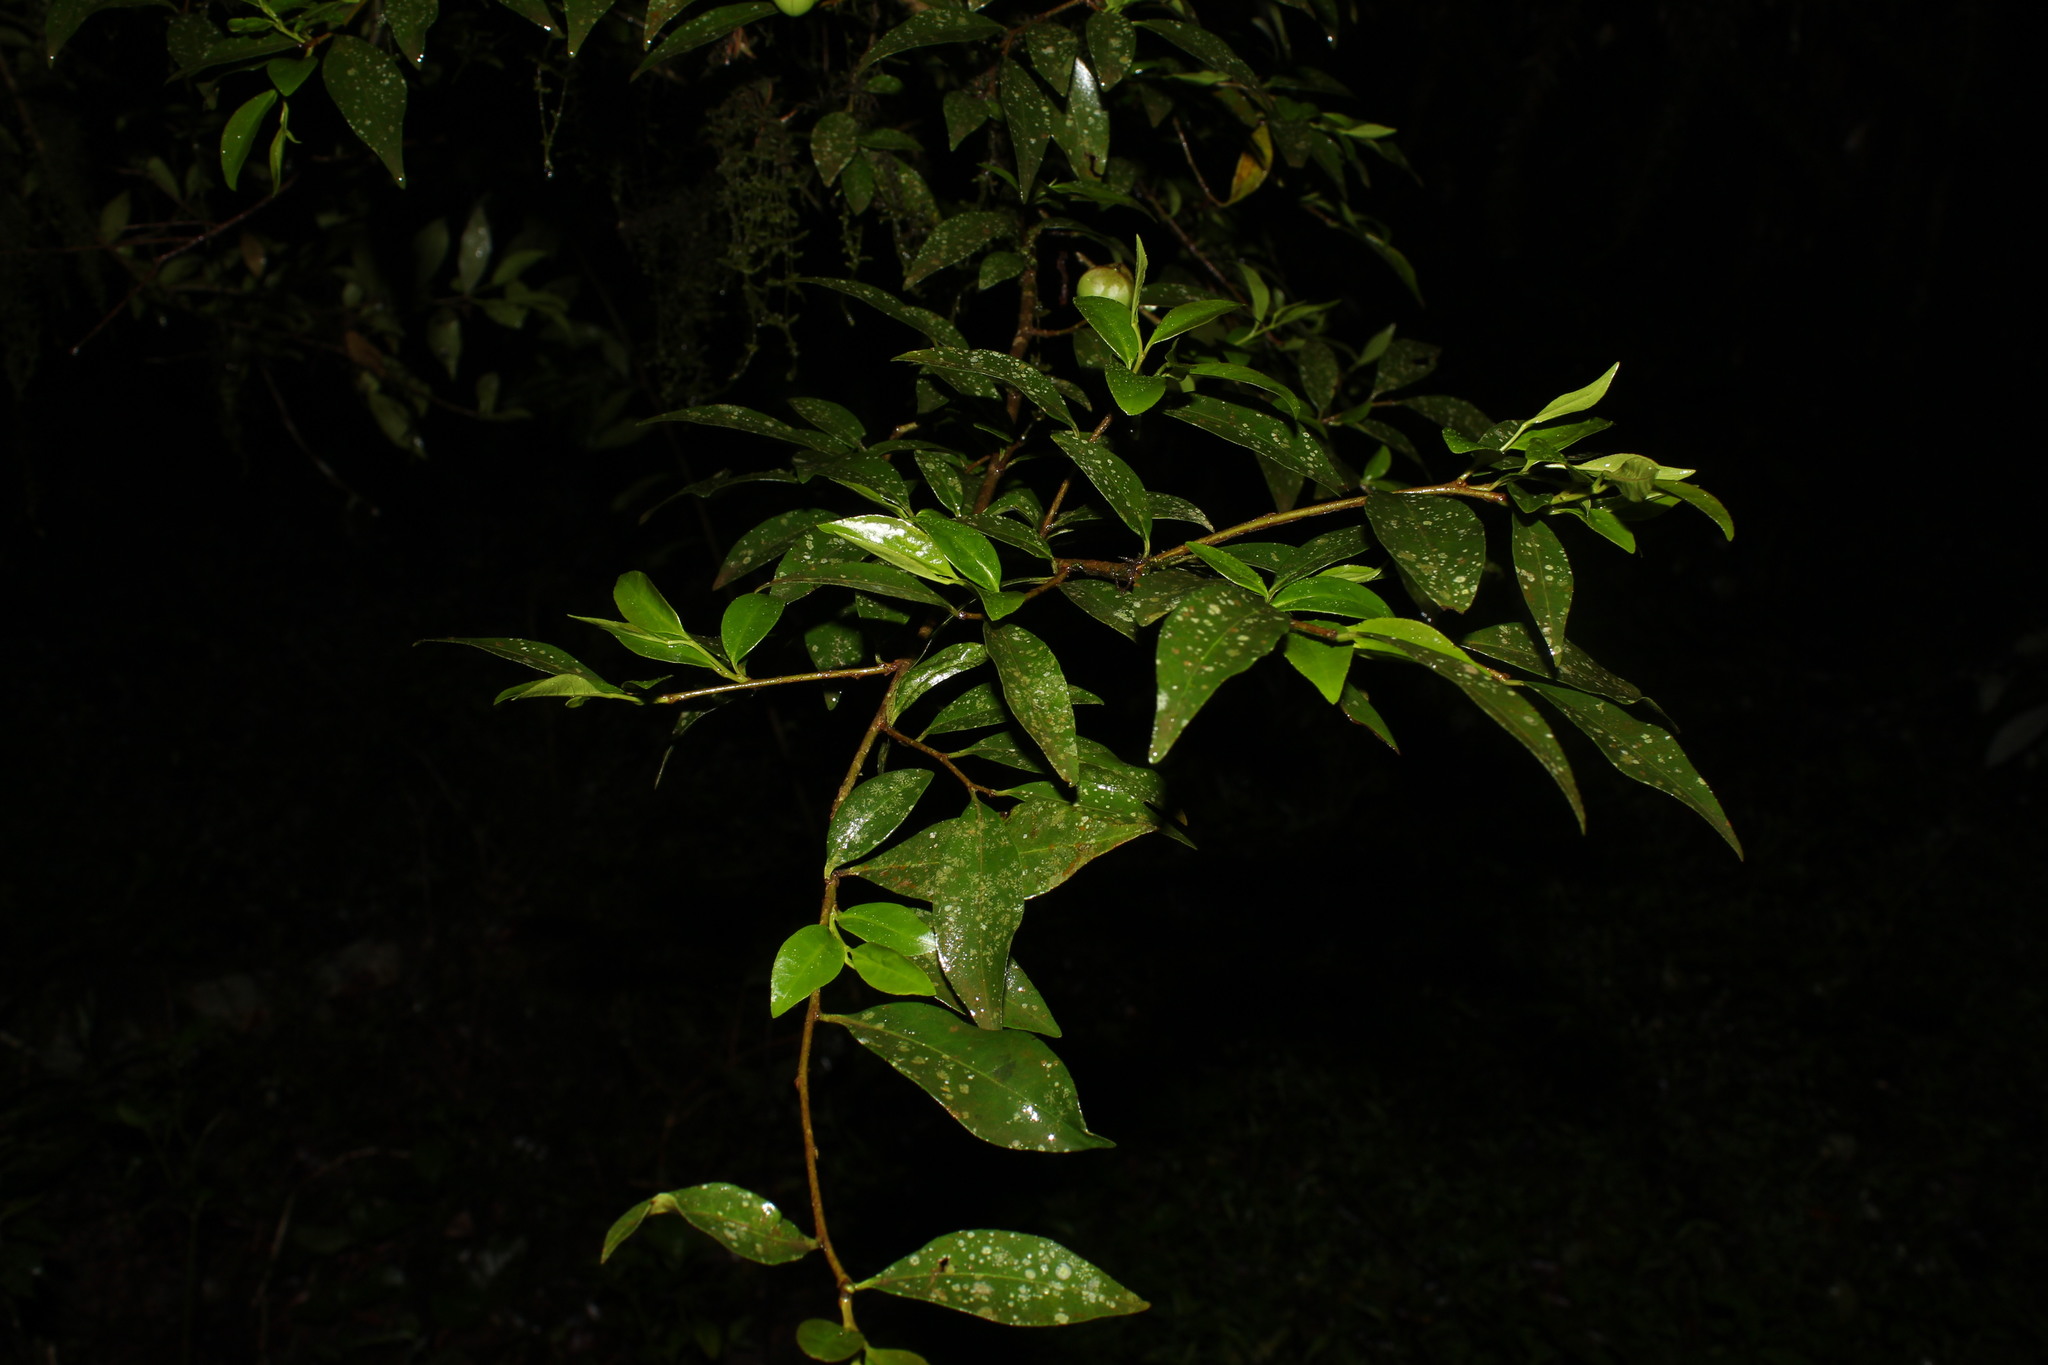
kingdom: Plantae
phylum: Tracheophyta
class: Magnoliopsida
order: Malpighiales
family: Euphorbiaceae
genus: Sebastiania
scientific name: Sebastiania brasiliensis
